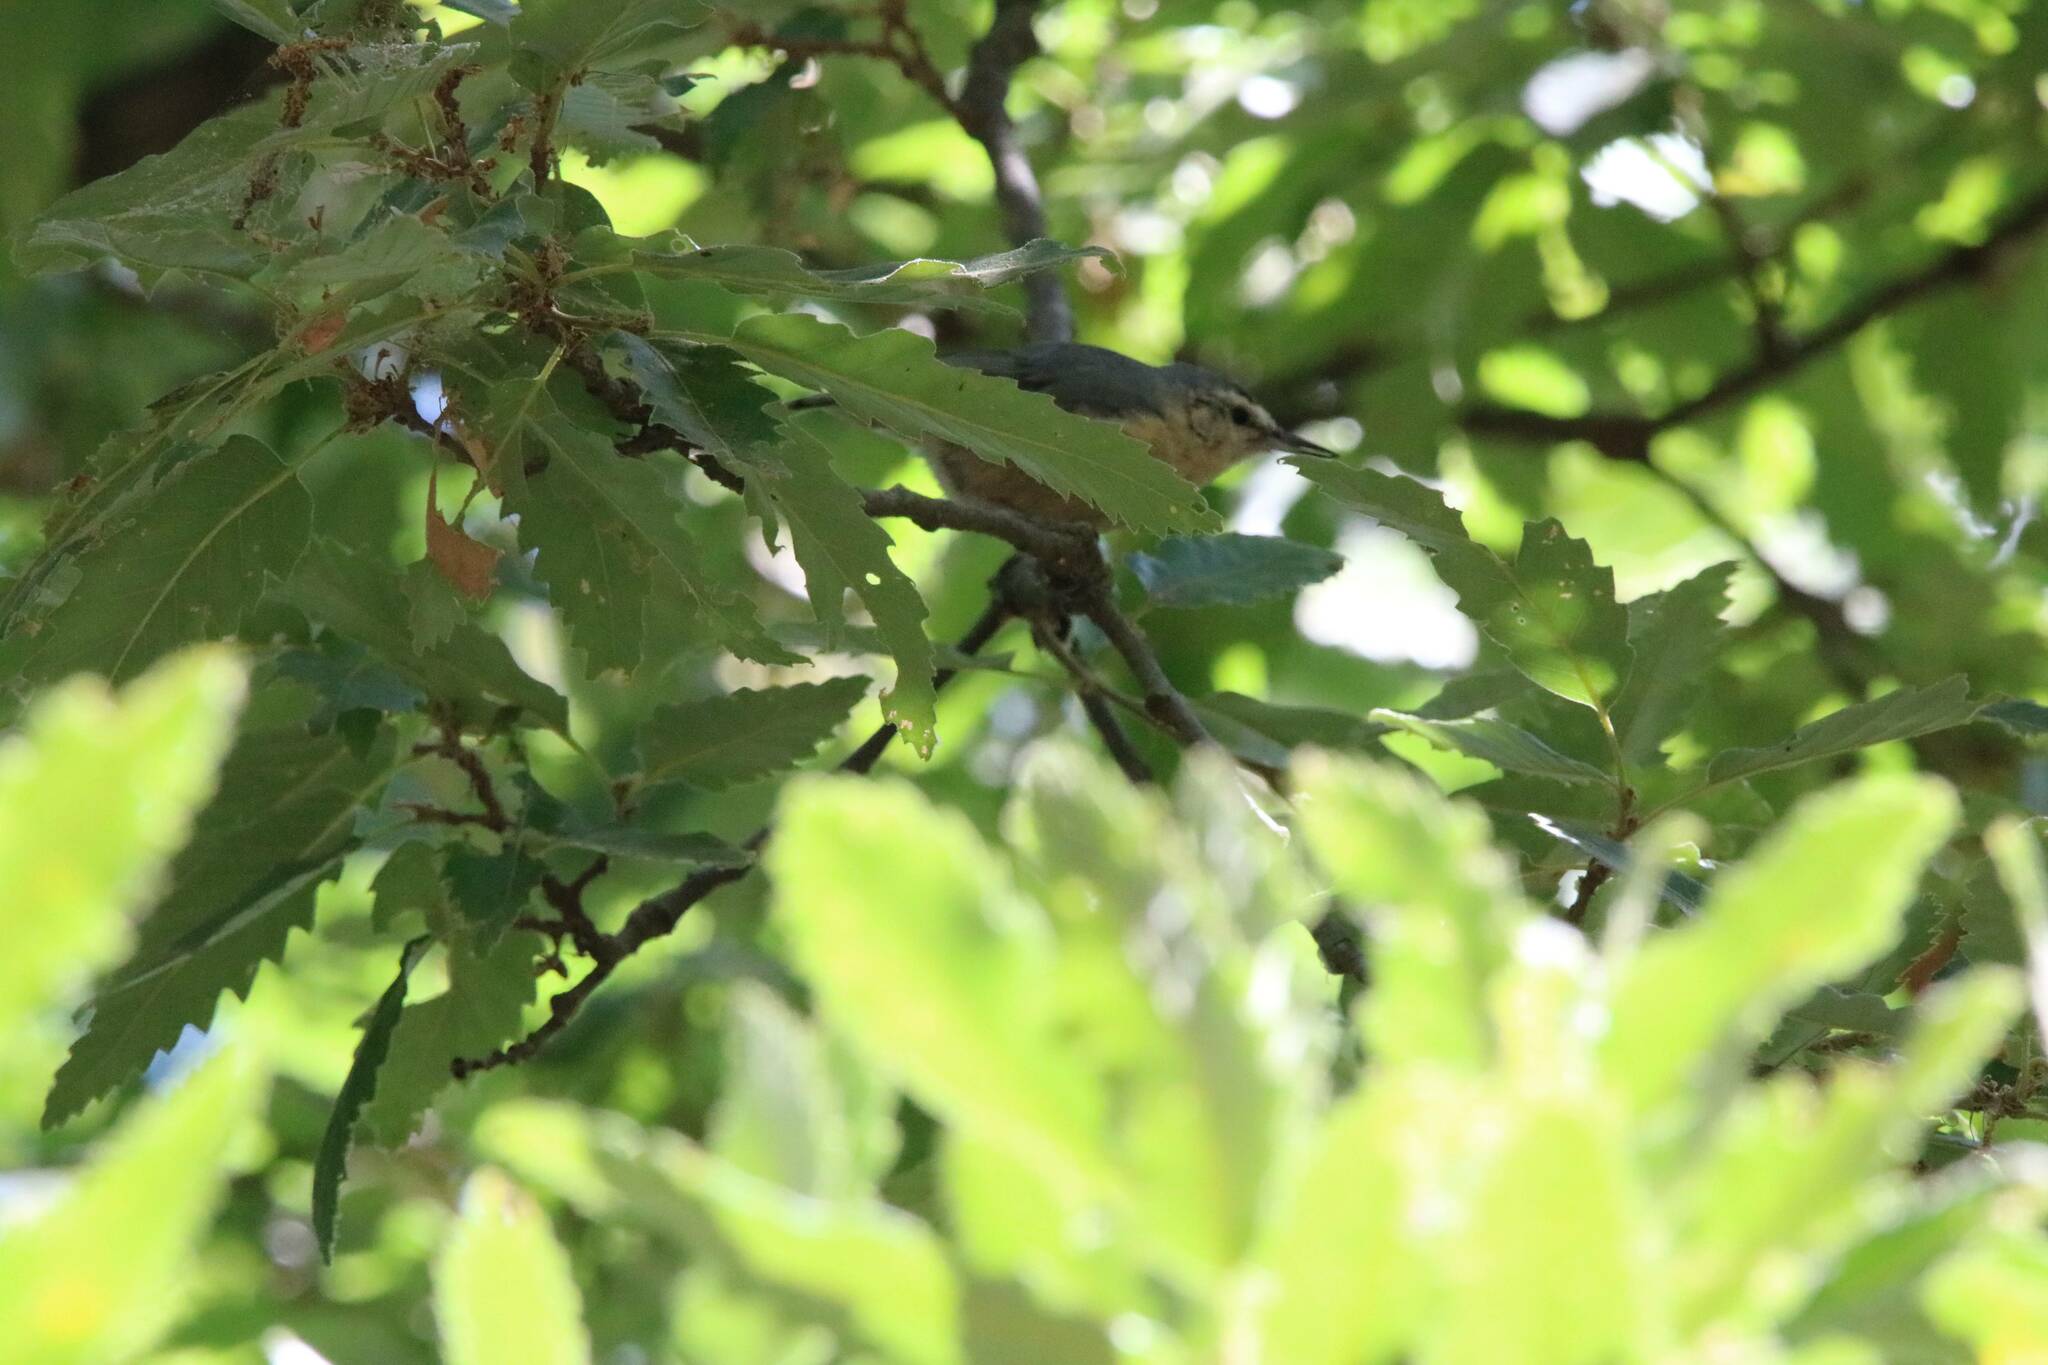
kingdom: Animalia
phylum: Chordata
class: Aves
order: Passeriformes
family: Sittidae
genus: Sitta
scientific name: Sitta ledanti
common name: Algerian nuthatch
